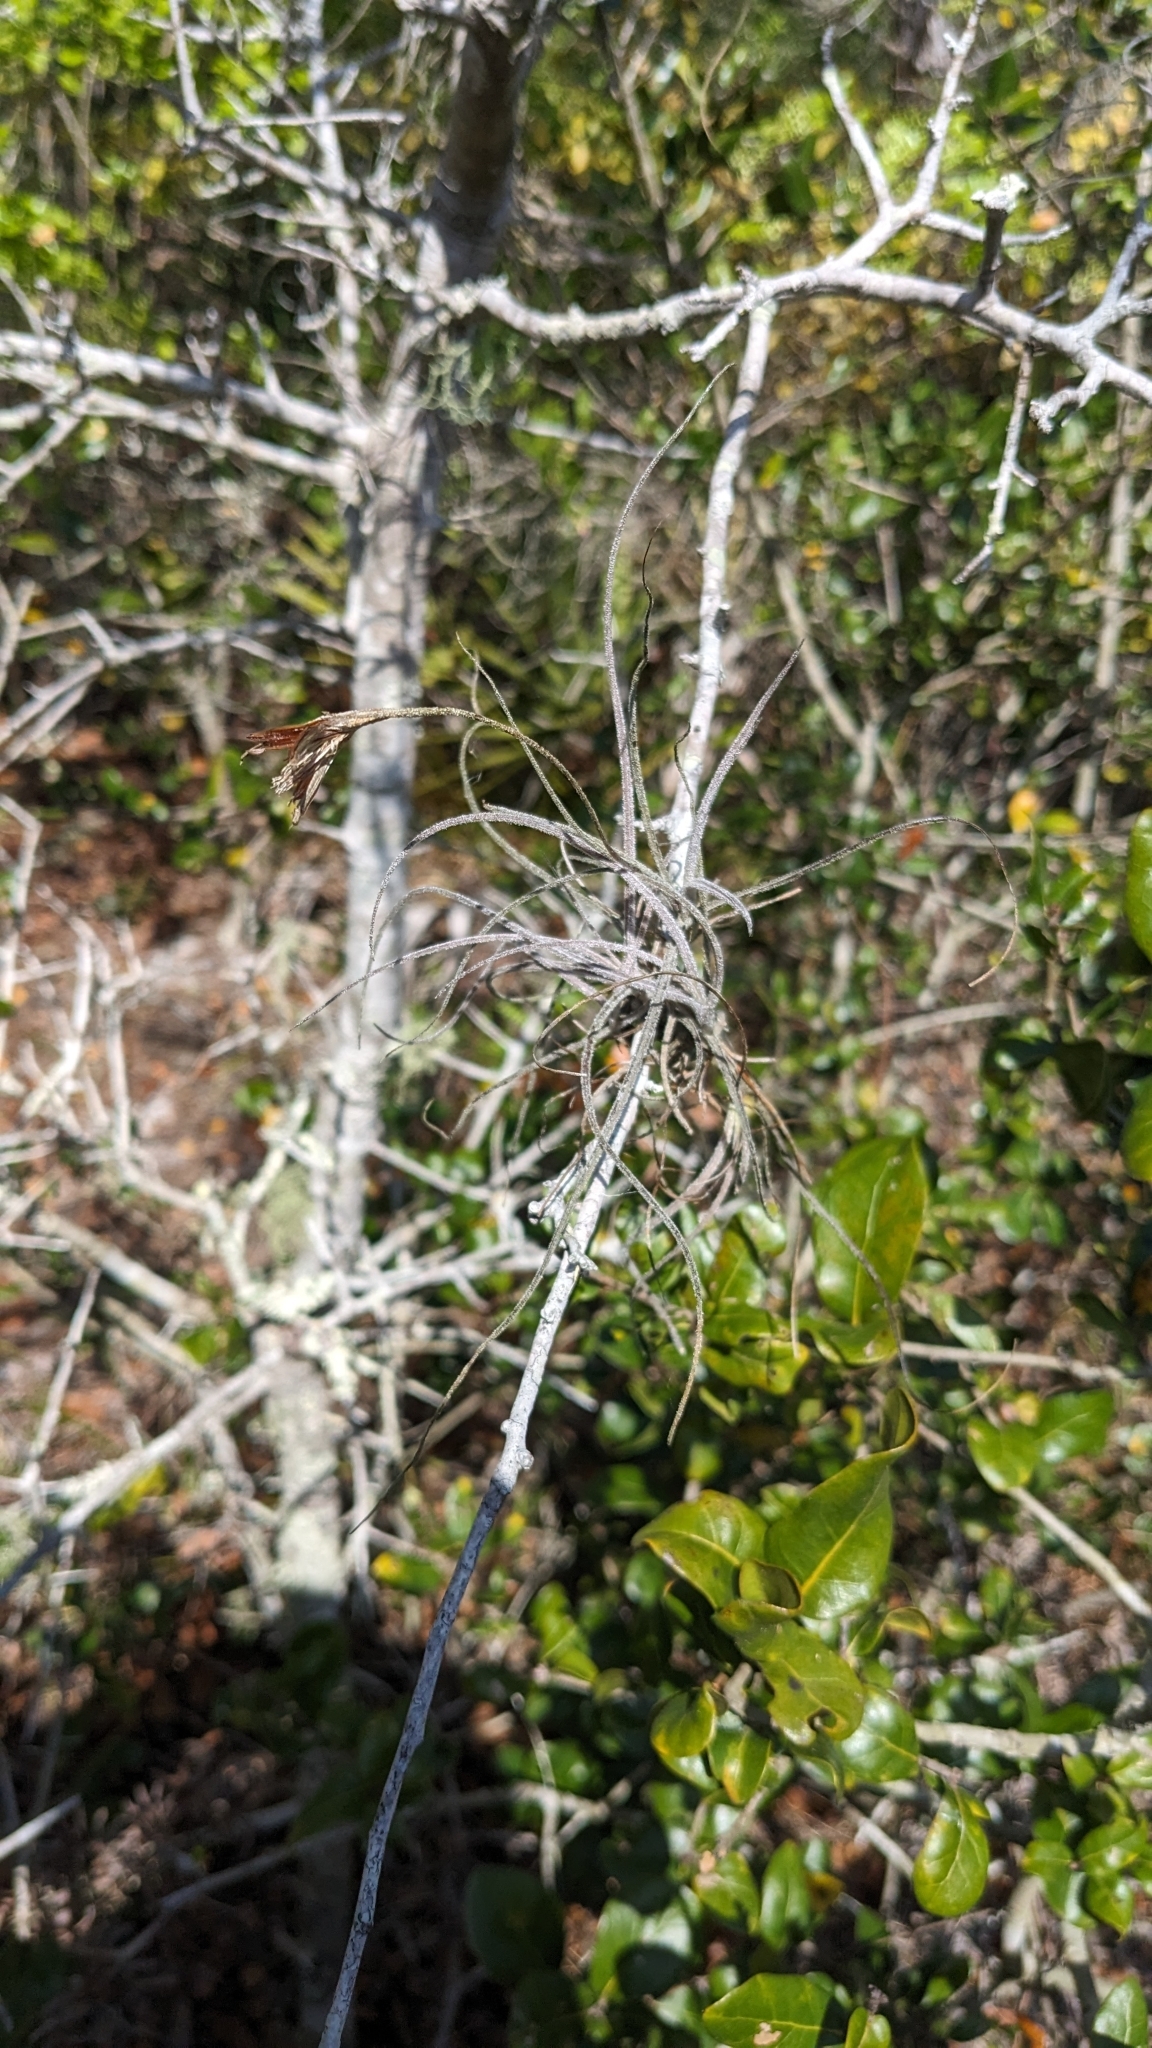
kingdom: Plantae
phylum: Tracheophyta
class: Liliopsida
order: Poales
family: Bromeliaceae
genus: Tillandsia
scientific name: Tillandsia recurvata
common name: Small ballmoss
